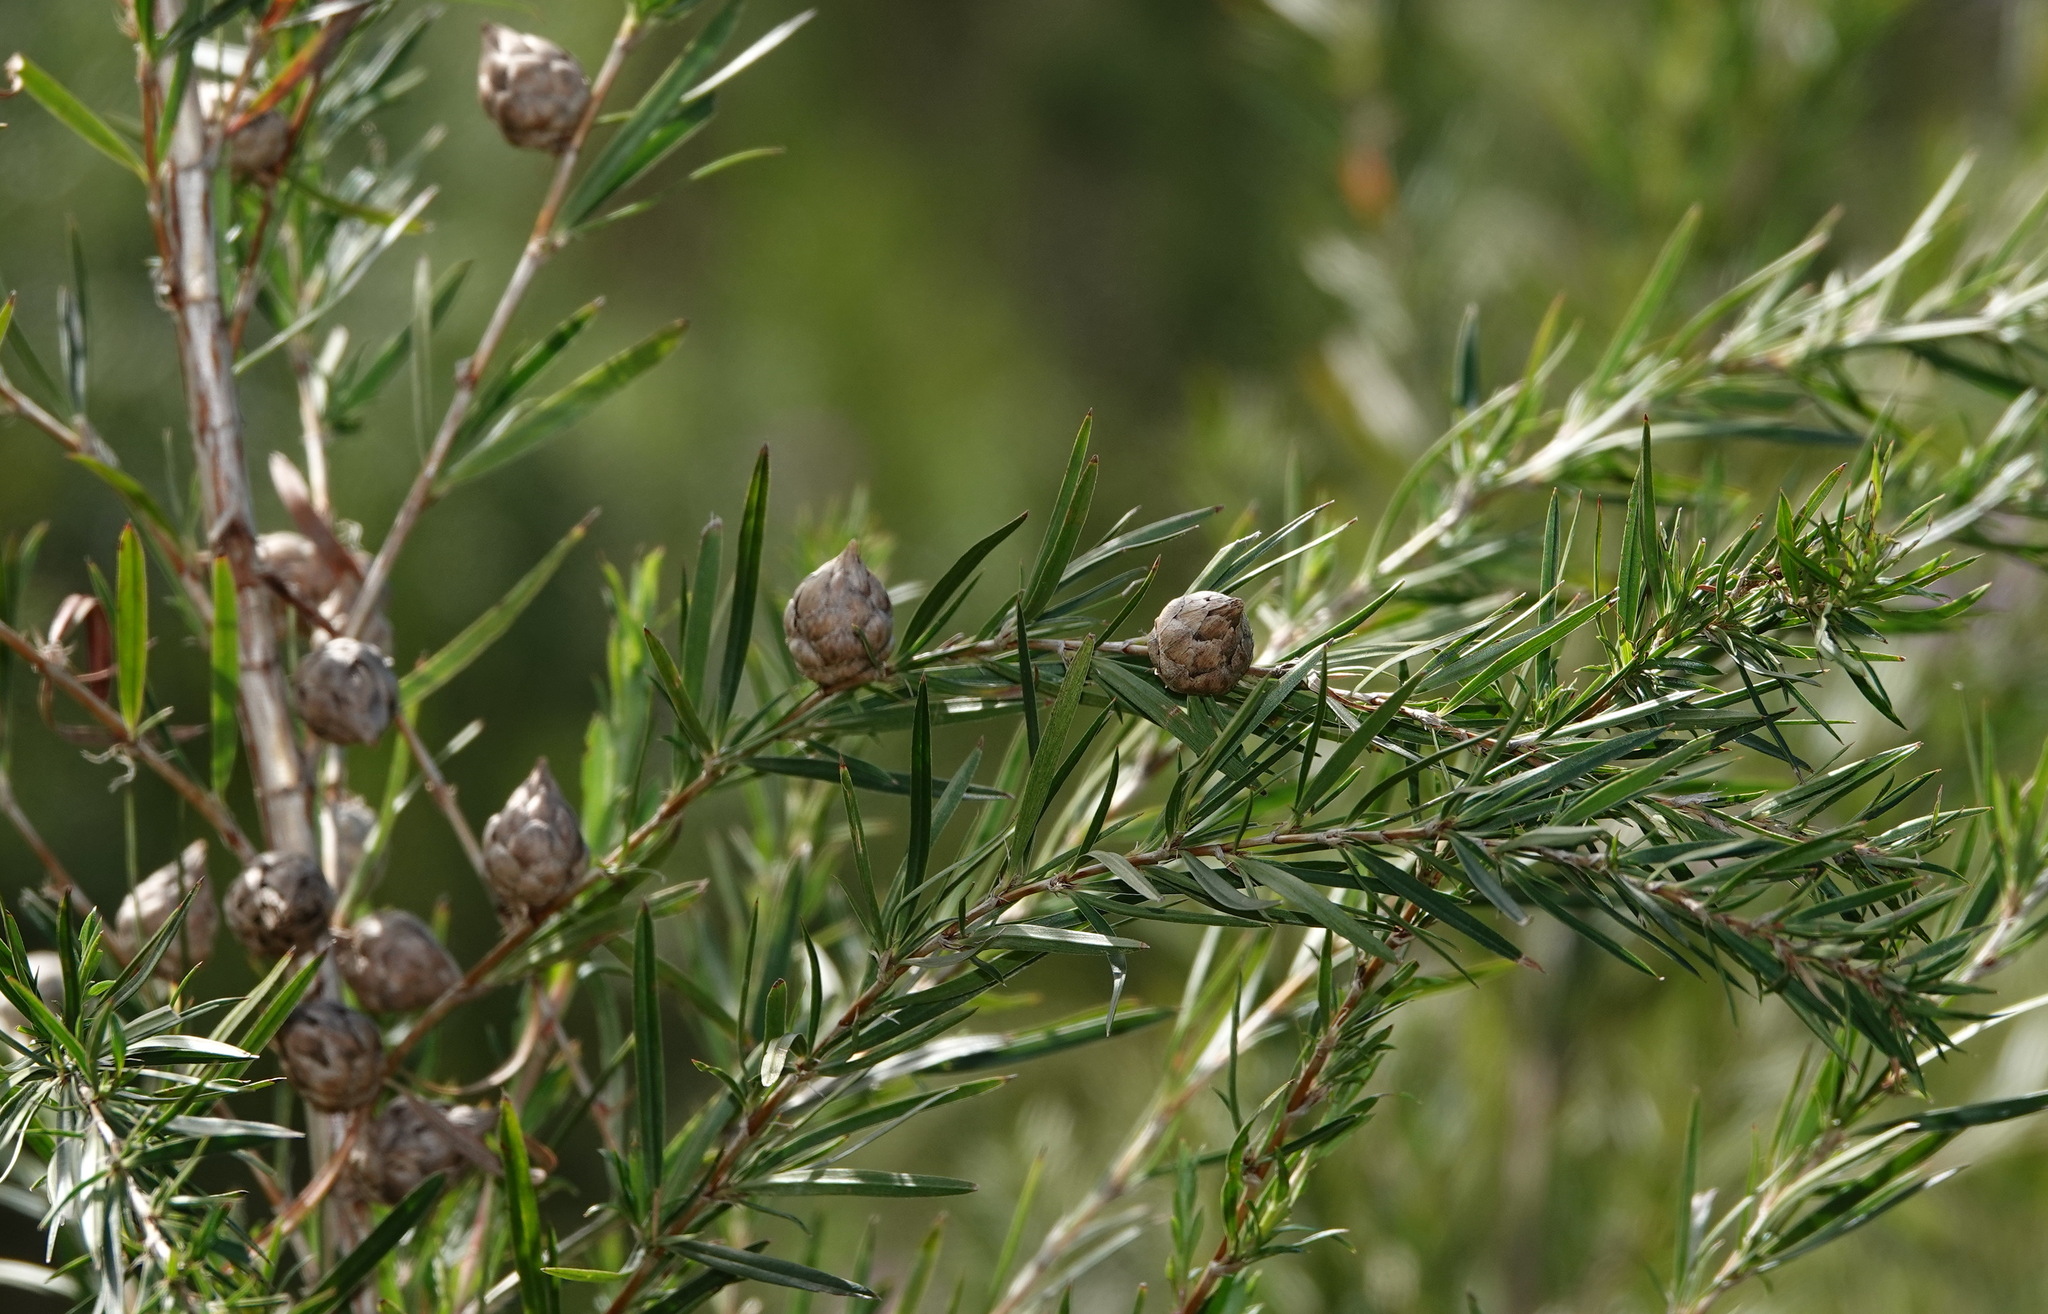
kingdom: Plantae
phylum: Tracheophyta
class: Magnoliopsida
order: Rosales
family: Rosaceae
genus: Cliffortia
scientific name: Cliffortia strobilifera
